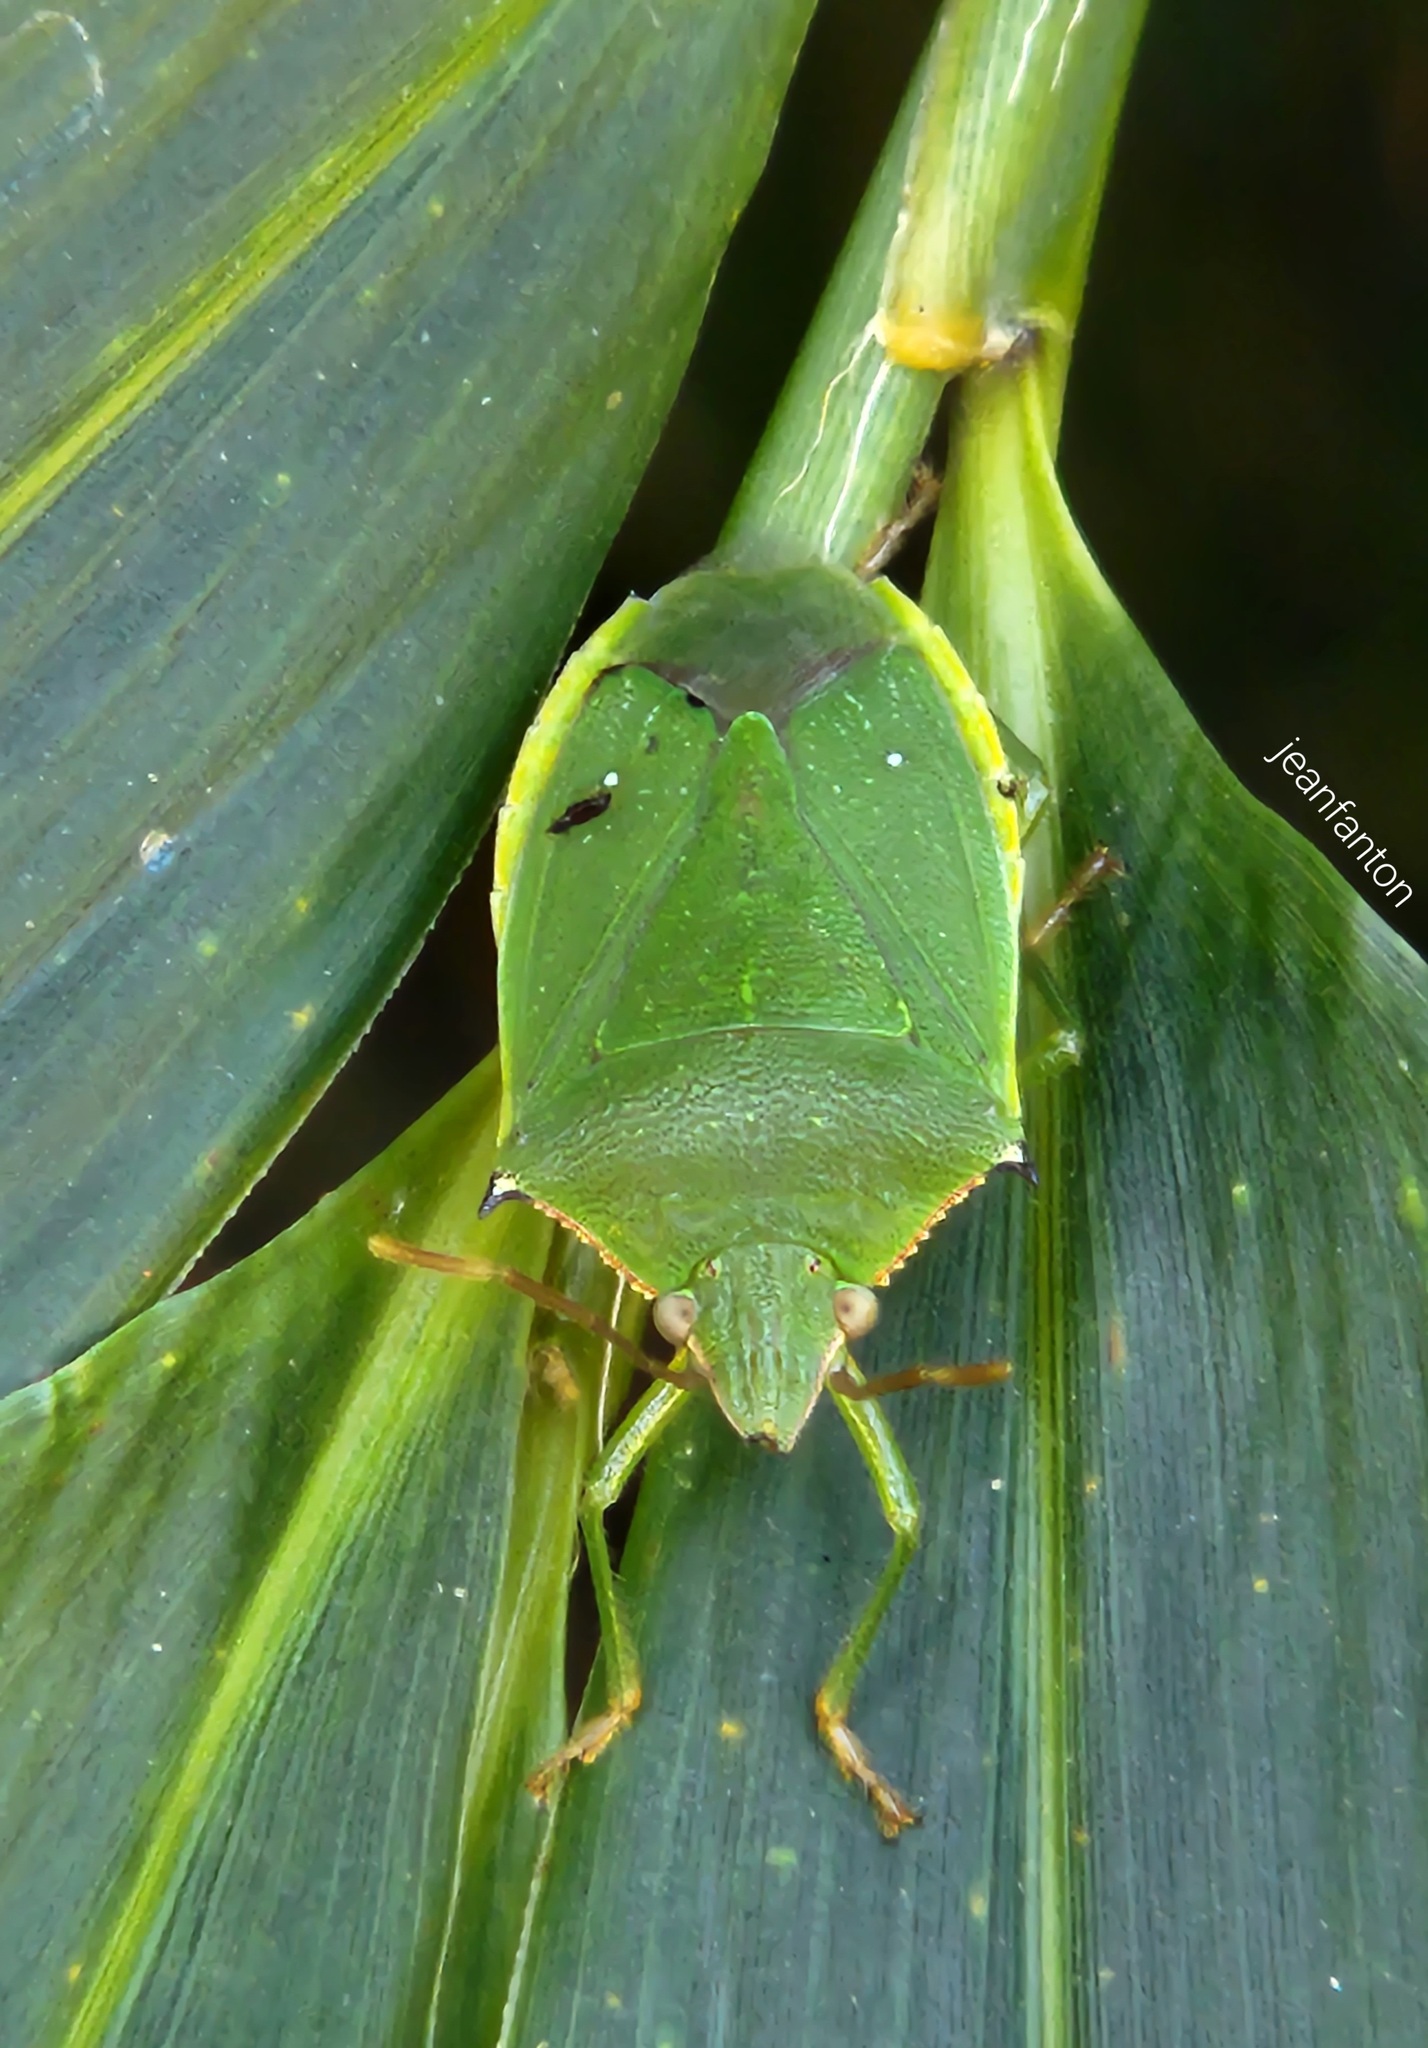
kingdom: Animalia
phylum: Arthropoda
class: Insecta
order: Hemiptera
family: Pentatomidae
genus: Mayrinia
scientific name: Mayrinia curvidens
